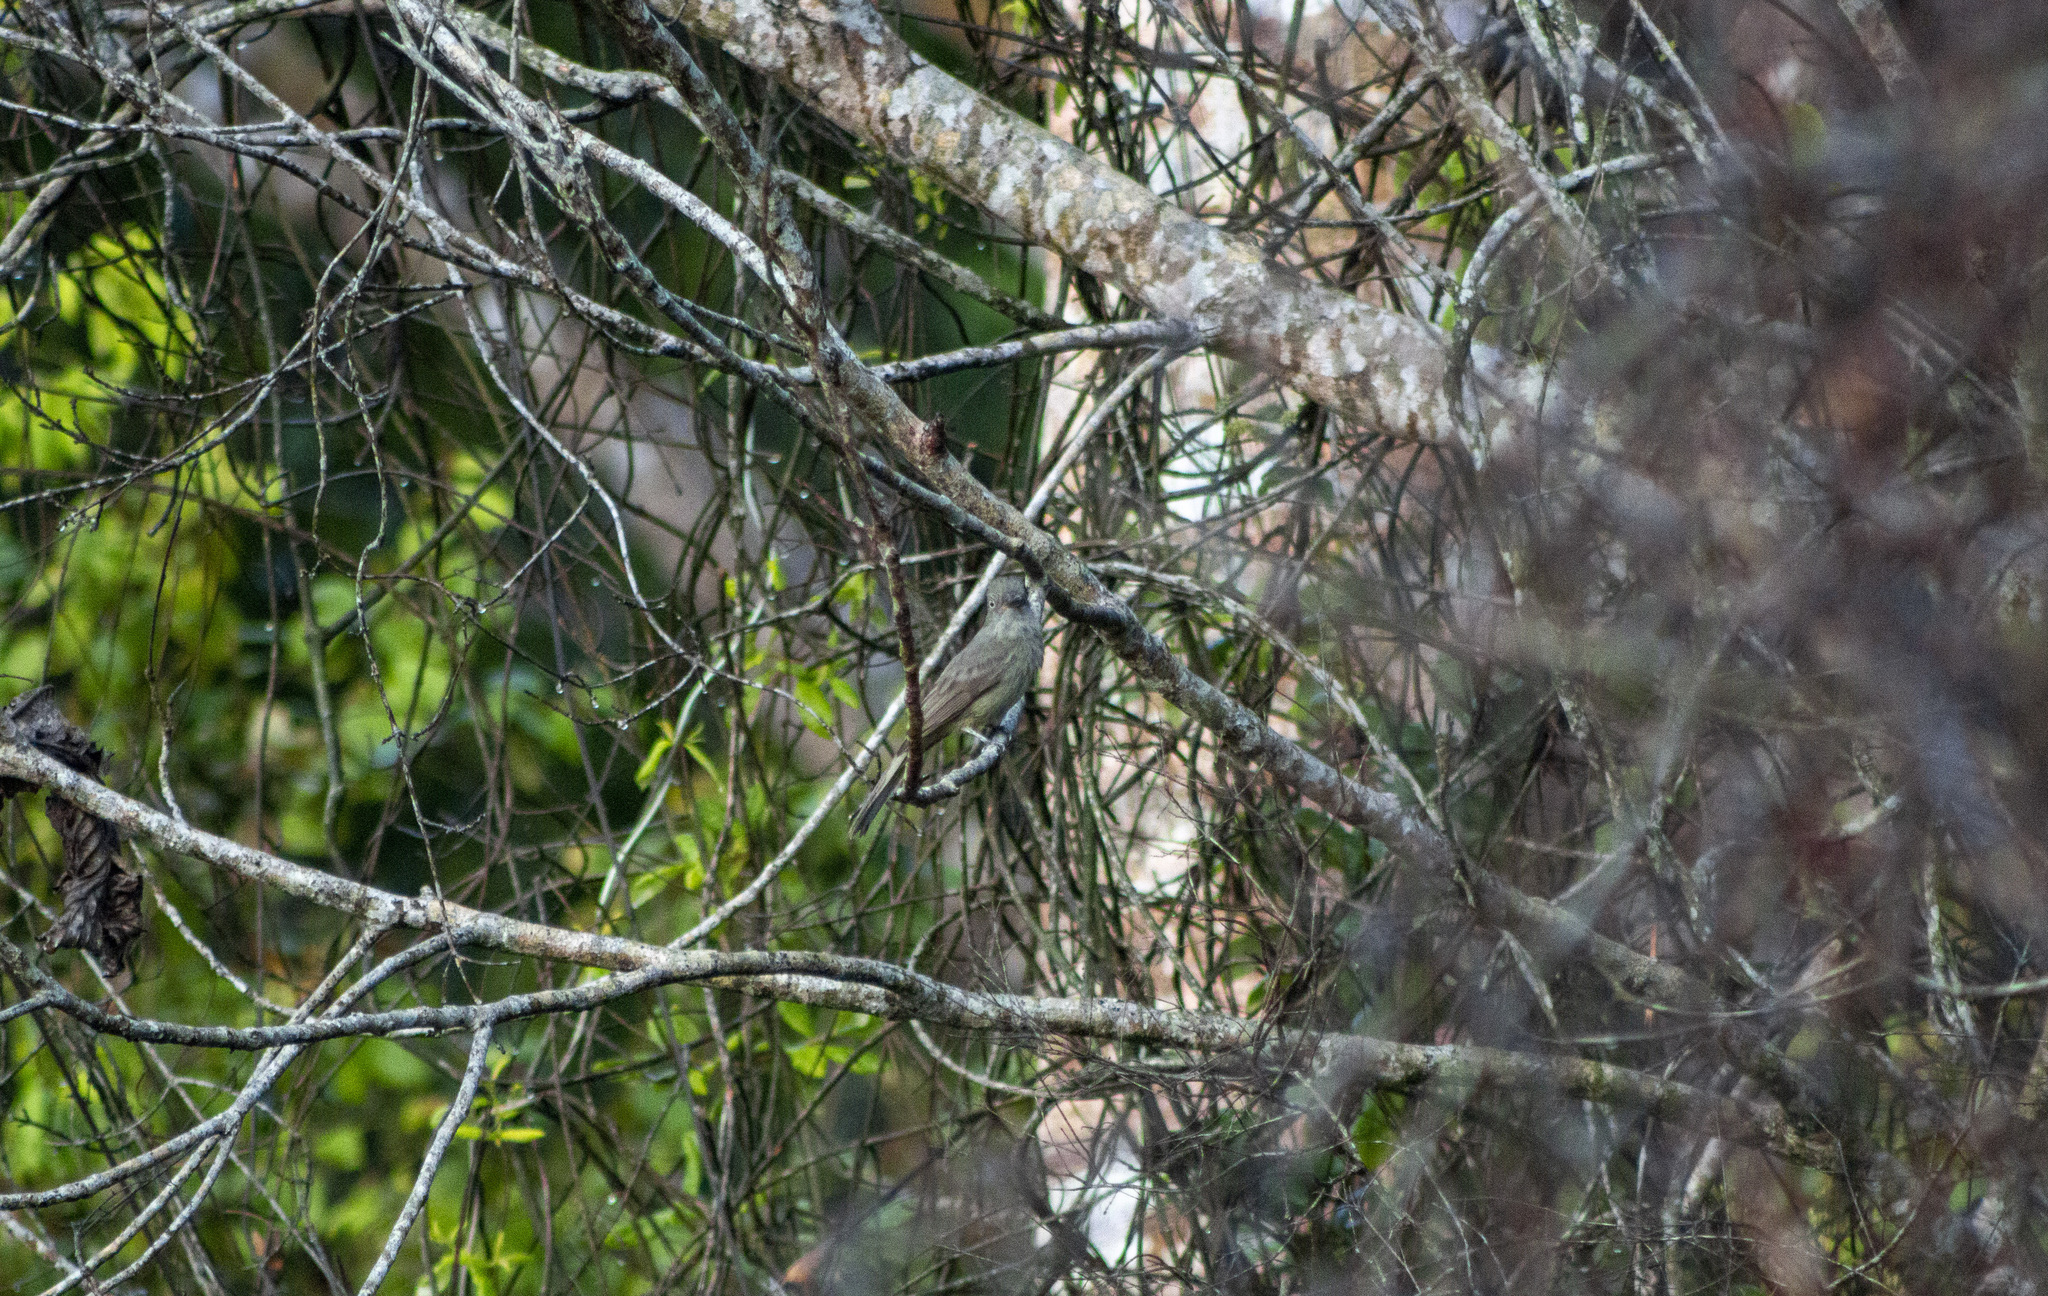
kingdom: Animalia
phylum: Chordata
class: Aves
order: Passeriformes
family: Tyrannidae
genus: Rhytipterna
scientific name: Rhytipterna simplex
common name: Greyish mourner
